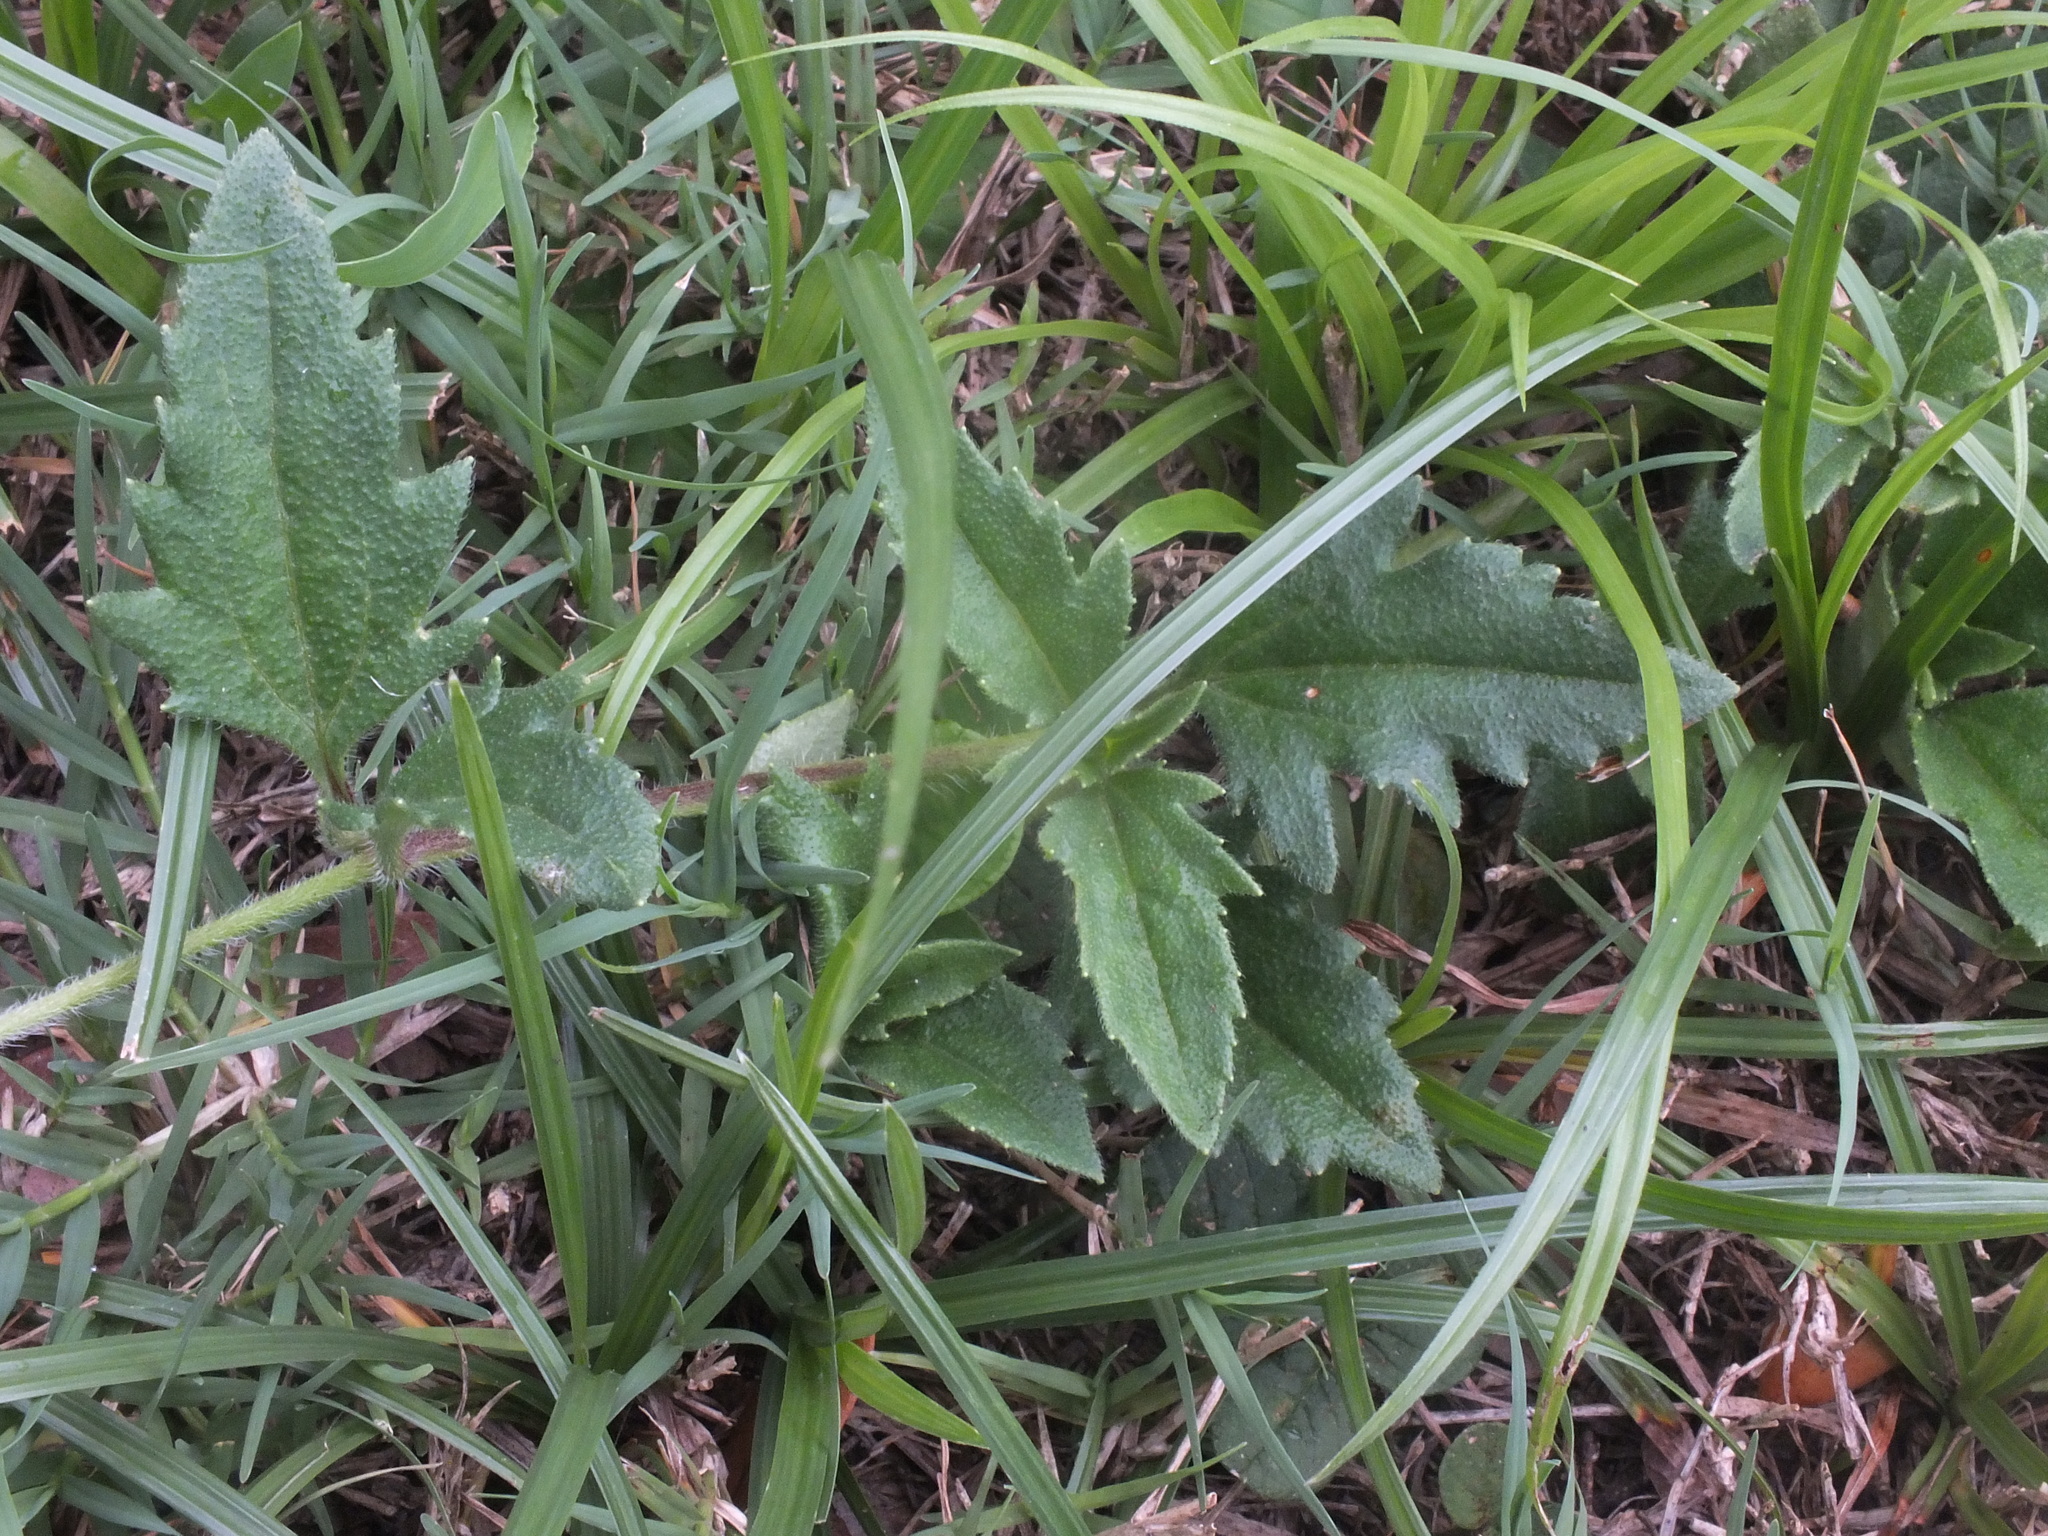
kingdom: Plantae
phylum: Tracheophyta
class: Magnoliopsida
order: Asterales
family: Asteraceae
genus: Tridax
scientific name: Tridax procumbens
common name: Coatbuttons
